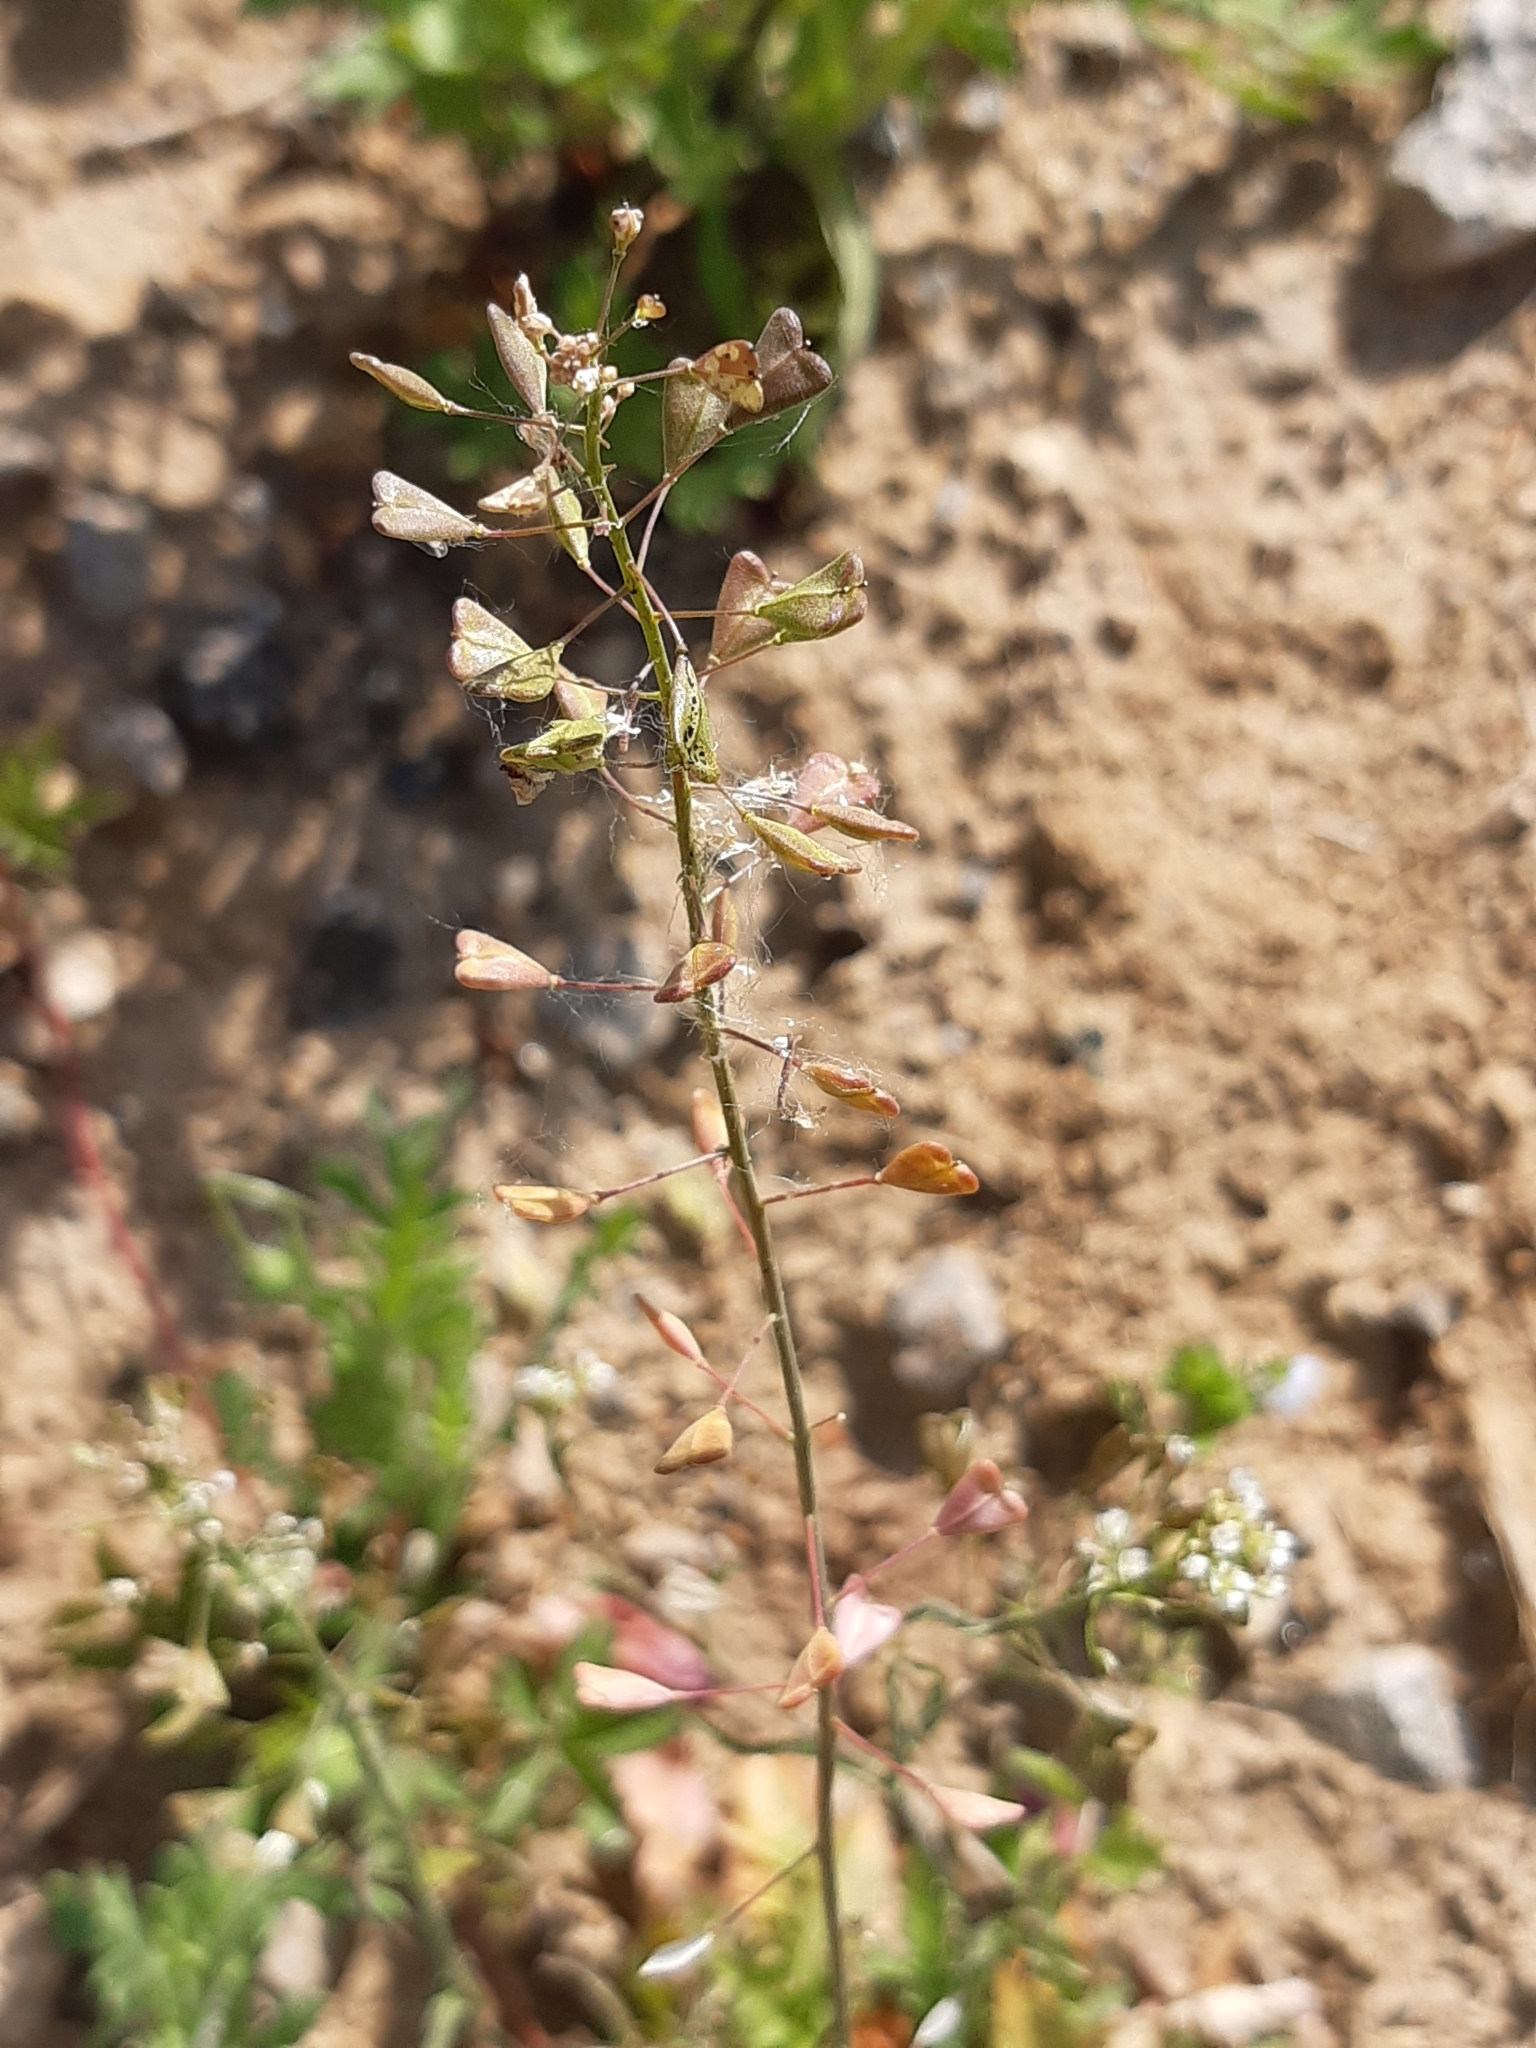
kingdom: Plantae
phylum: Tracheophyta
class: Magnoliopsida
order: Brassicales
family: Brassicaceae
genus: Capsella
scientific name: Capsella bursa-pastoris
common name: Shepherd's purse
